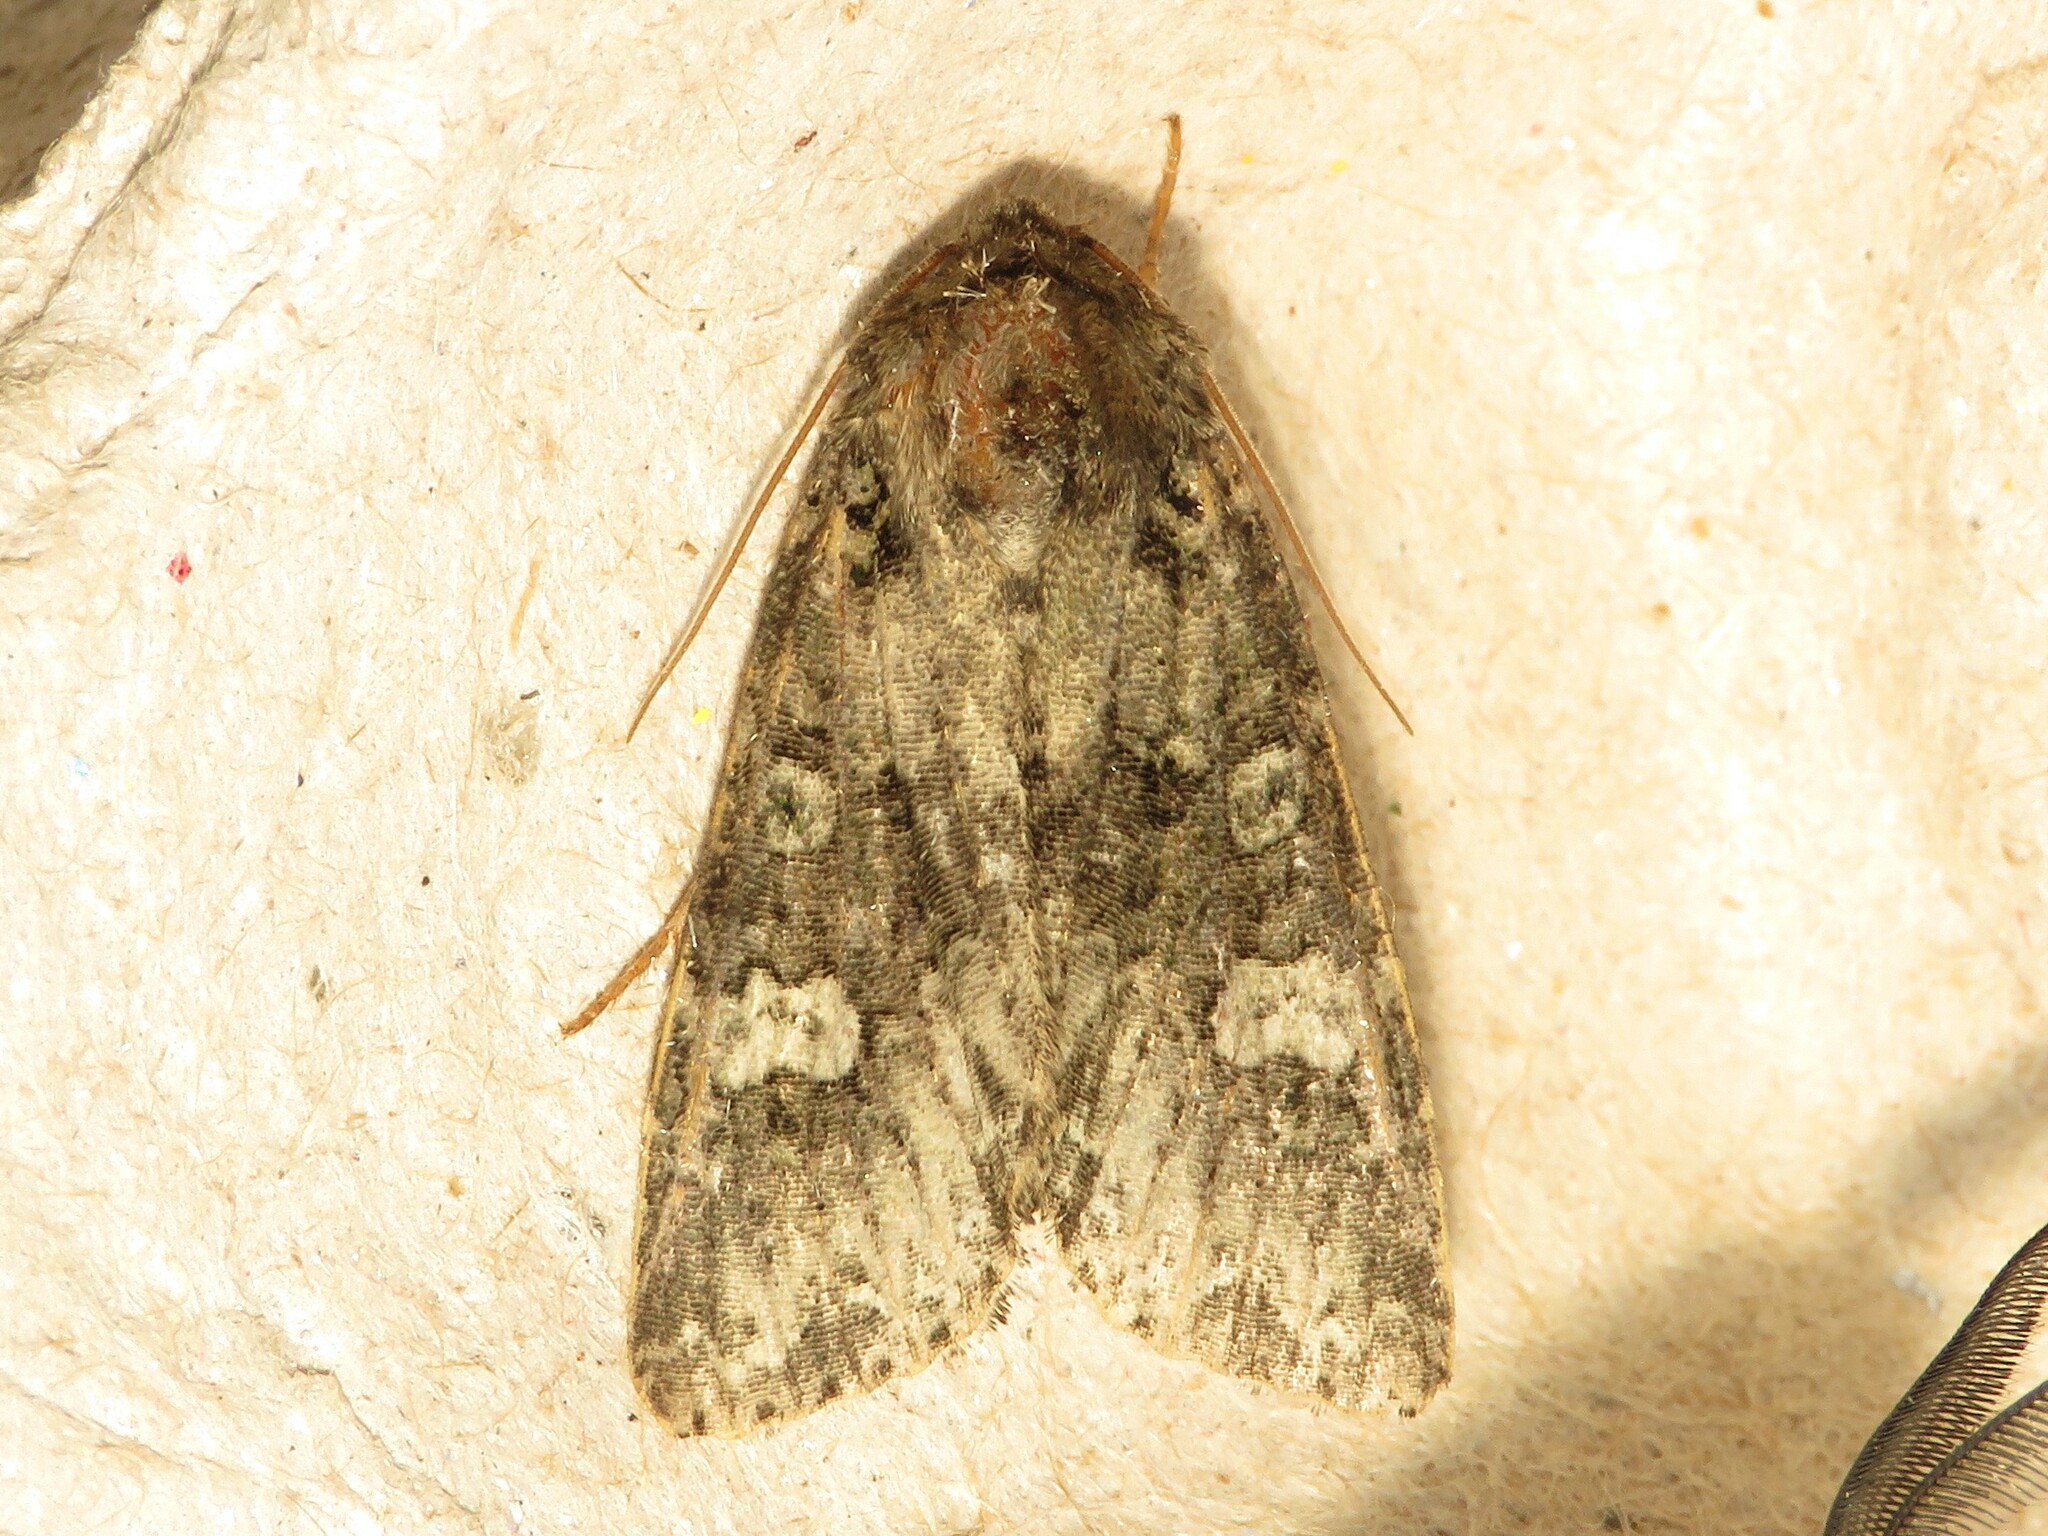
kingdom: Animalia
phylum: Arthropoda
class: Insecta
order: Lepidoptera
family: Noctuidae
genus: Melanchra
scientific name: Melanchra adjuncta
